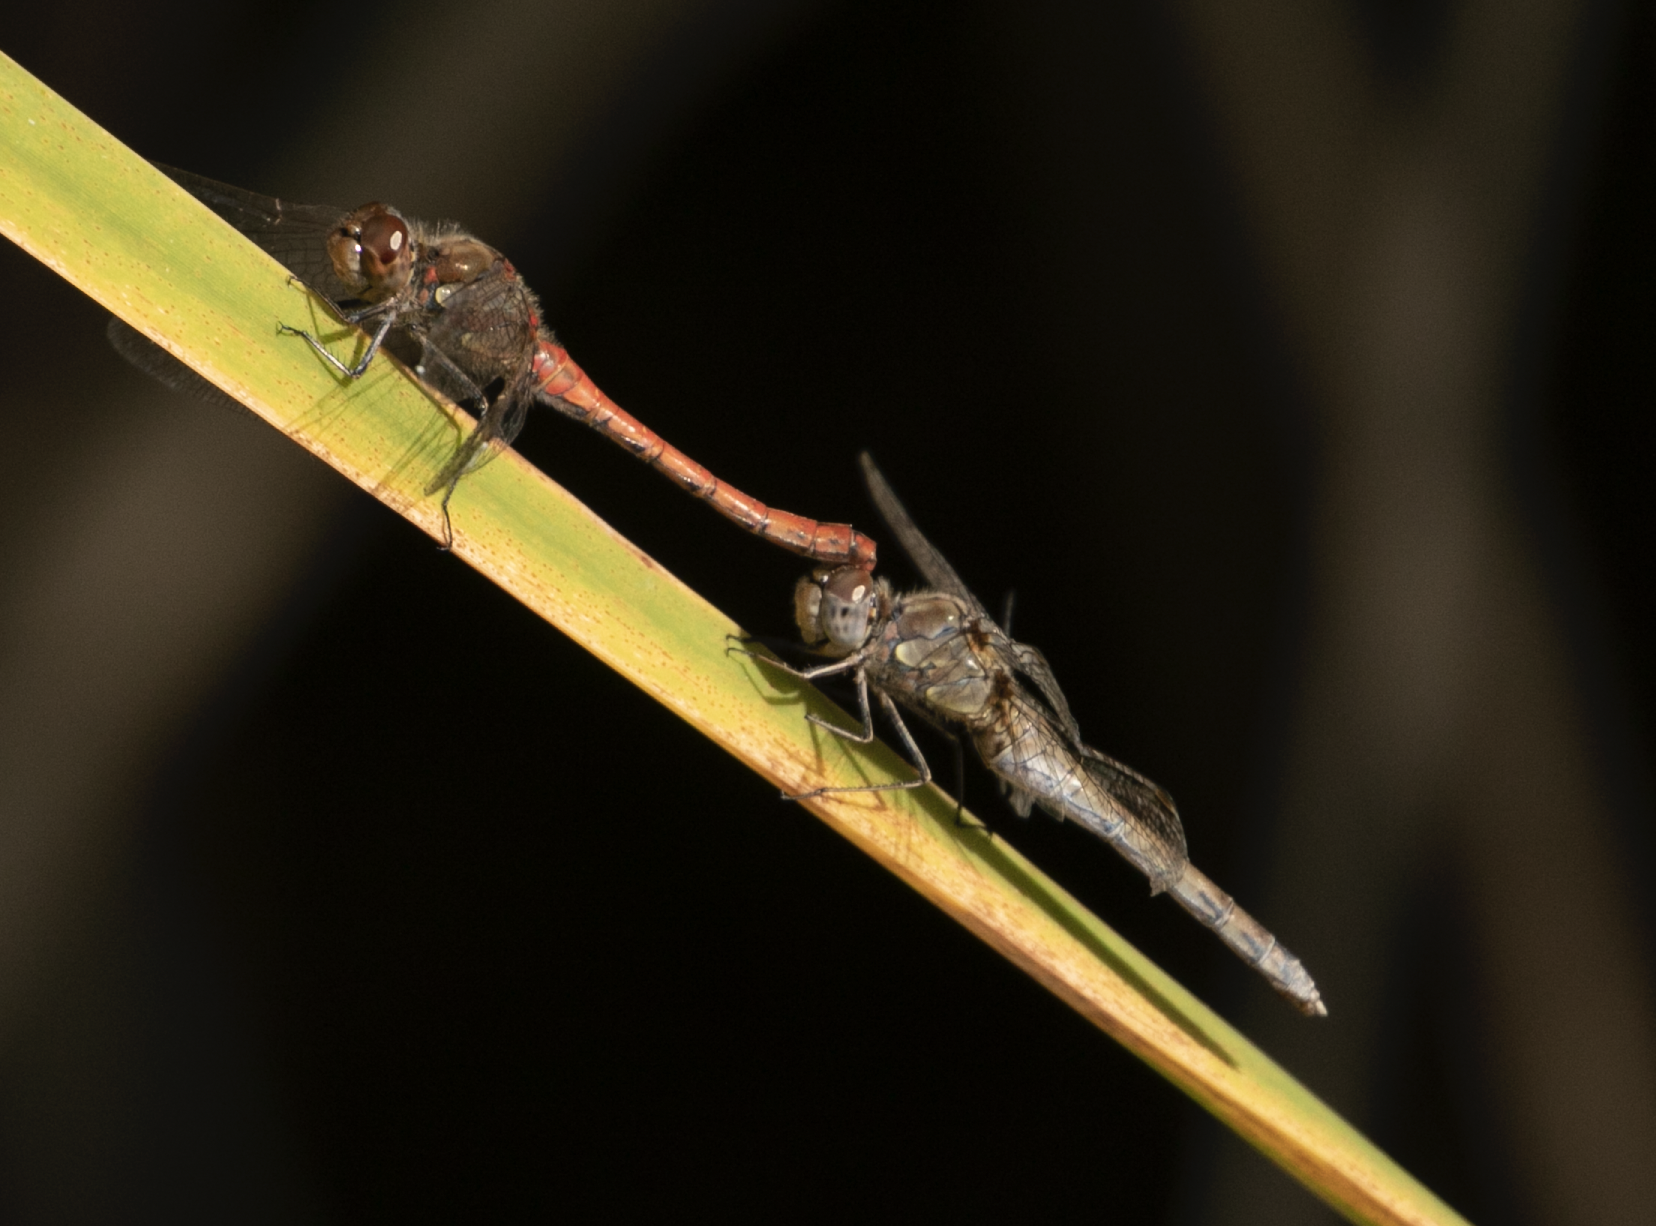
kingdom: Animalia
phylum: Arthropoda
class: Insecta
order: Odonata
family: Libellulidae
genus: Sympetrum
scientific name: Sympetrum striolatum
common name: Common darter
